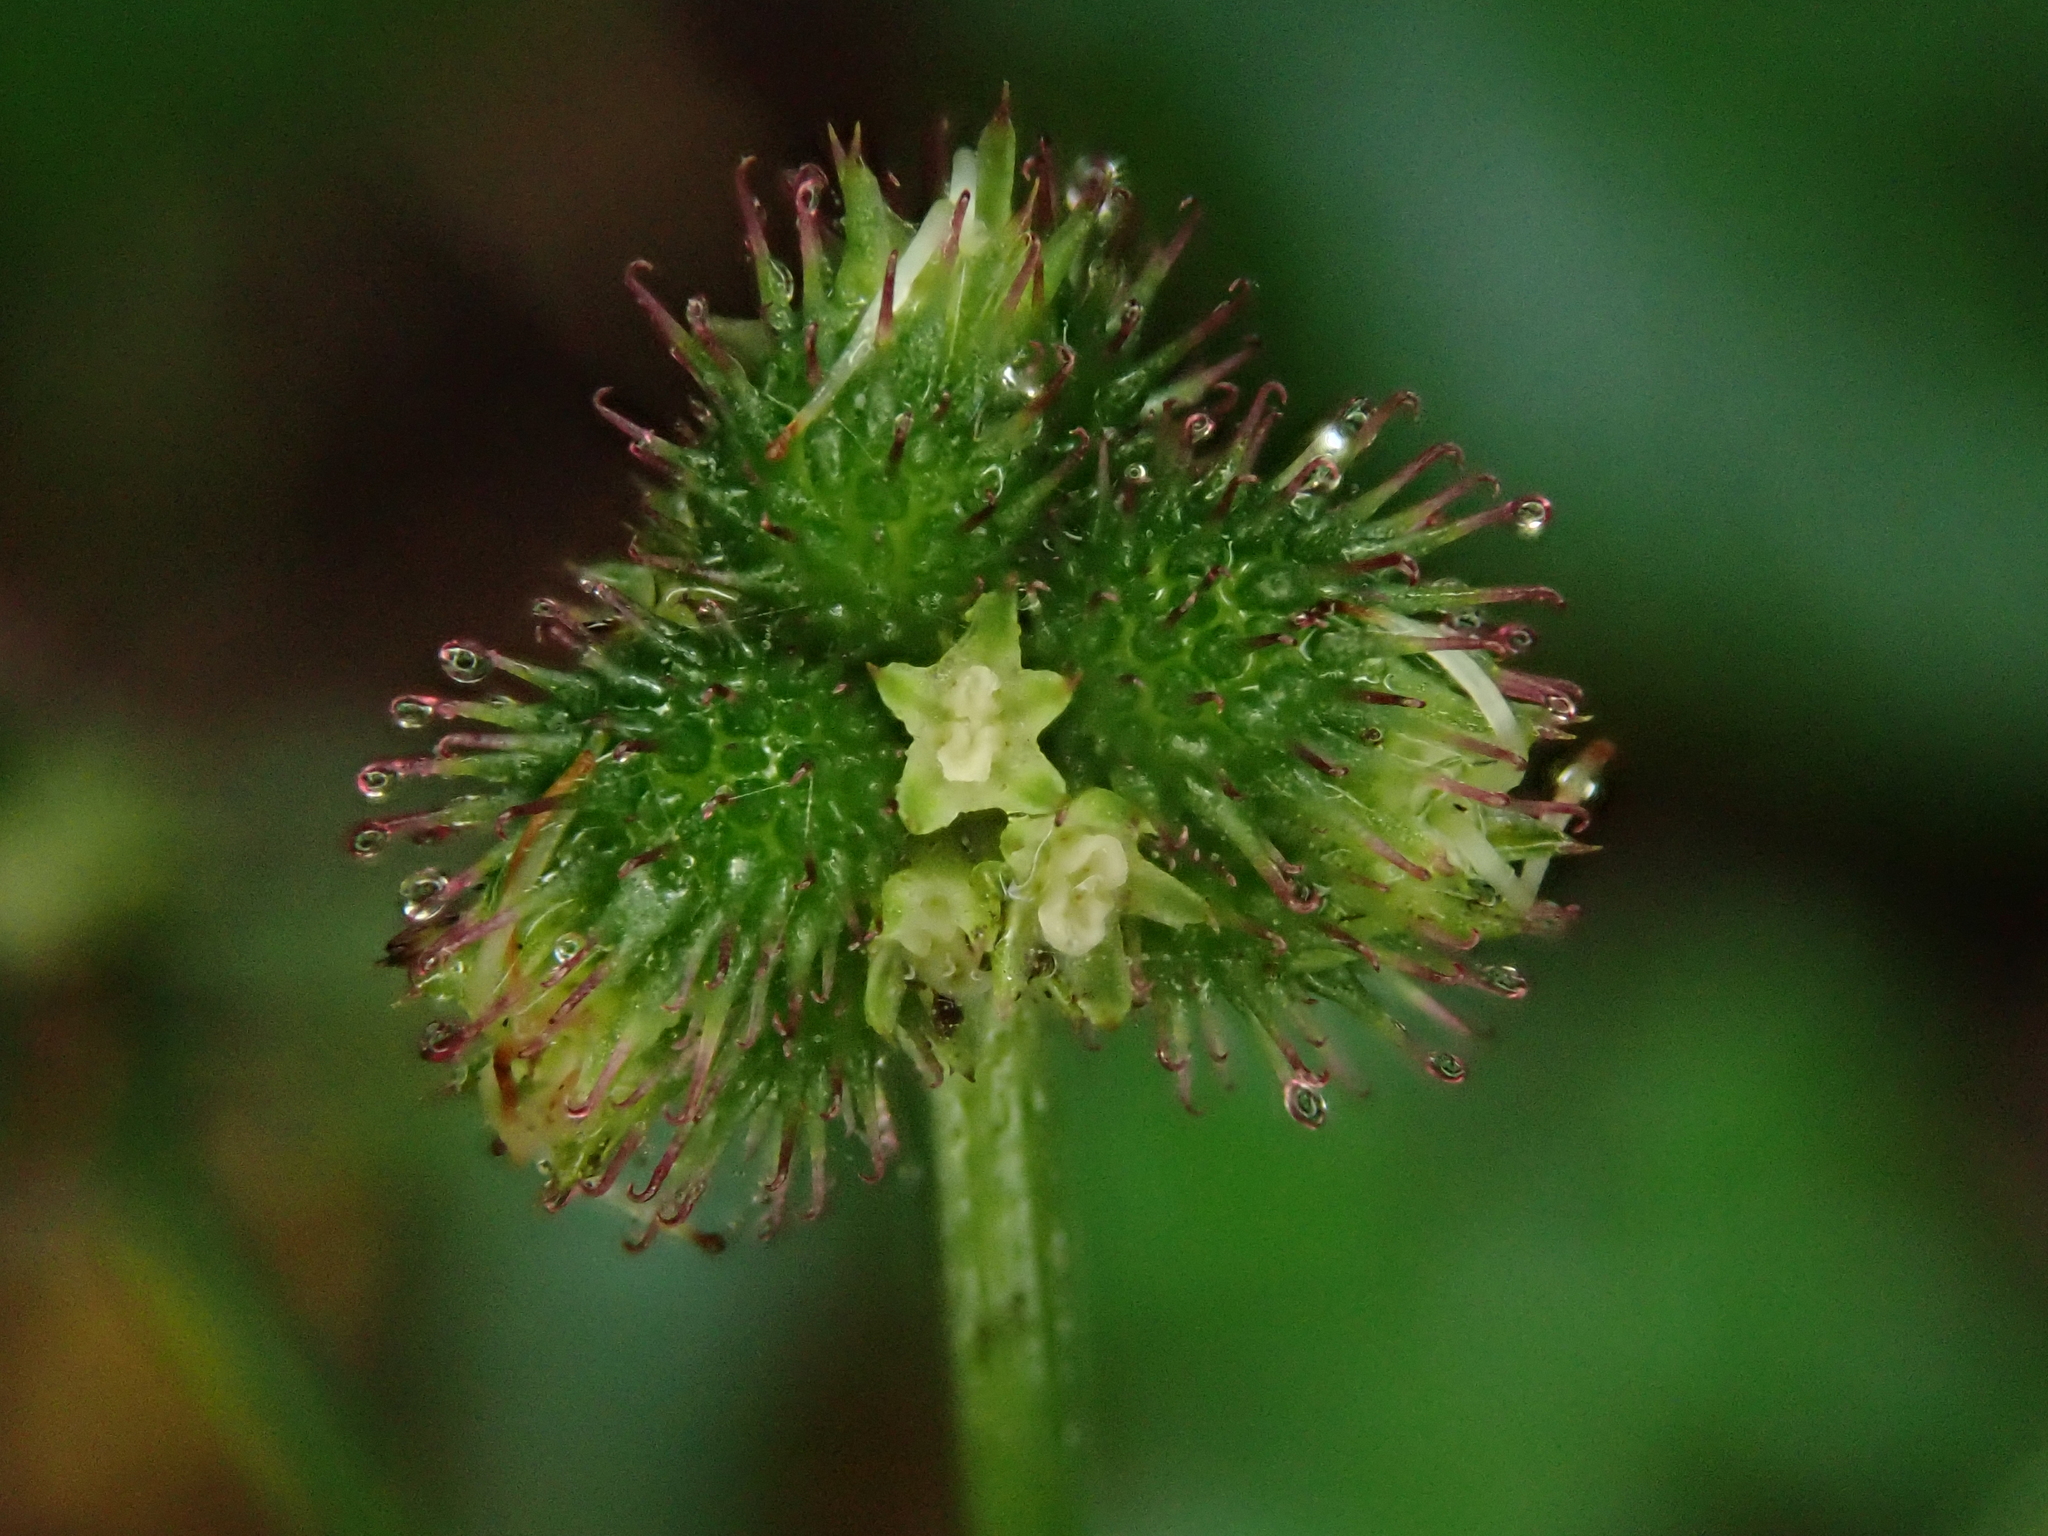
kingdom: Plantae
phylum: Tracheophyta
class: Magnoliopsida
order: Apiales
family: Apiaceae
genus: Sanicula
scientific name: Sanicula europaea
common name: Sanicle
